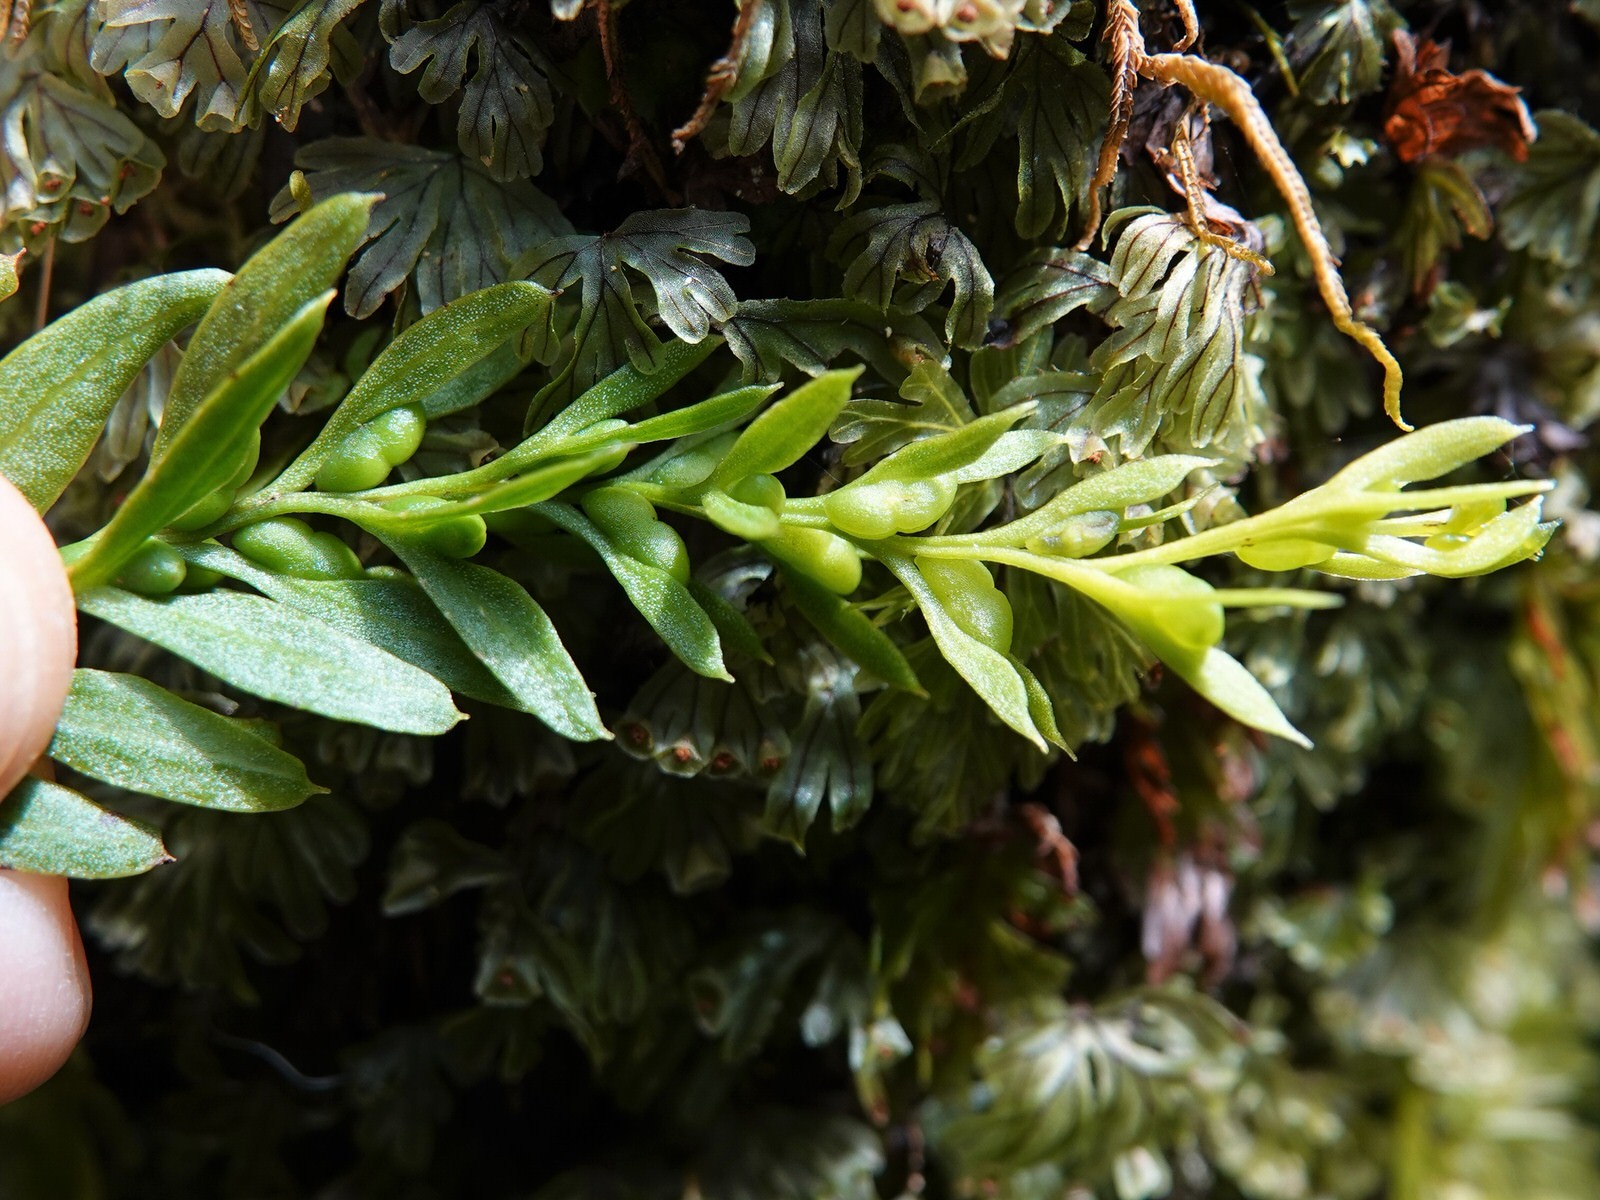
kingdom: Plantae
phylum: Tracheophyta
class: Polypodiopsida
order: Psilotales
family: Psilotaceae
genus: Tmesipteris
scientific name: Tmesipteris elongata
